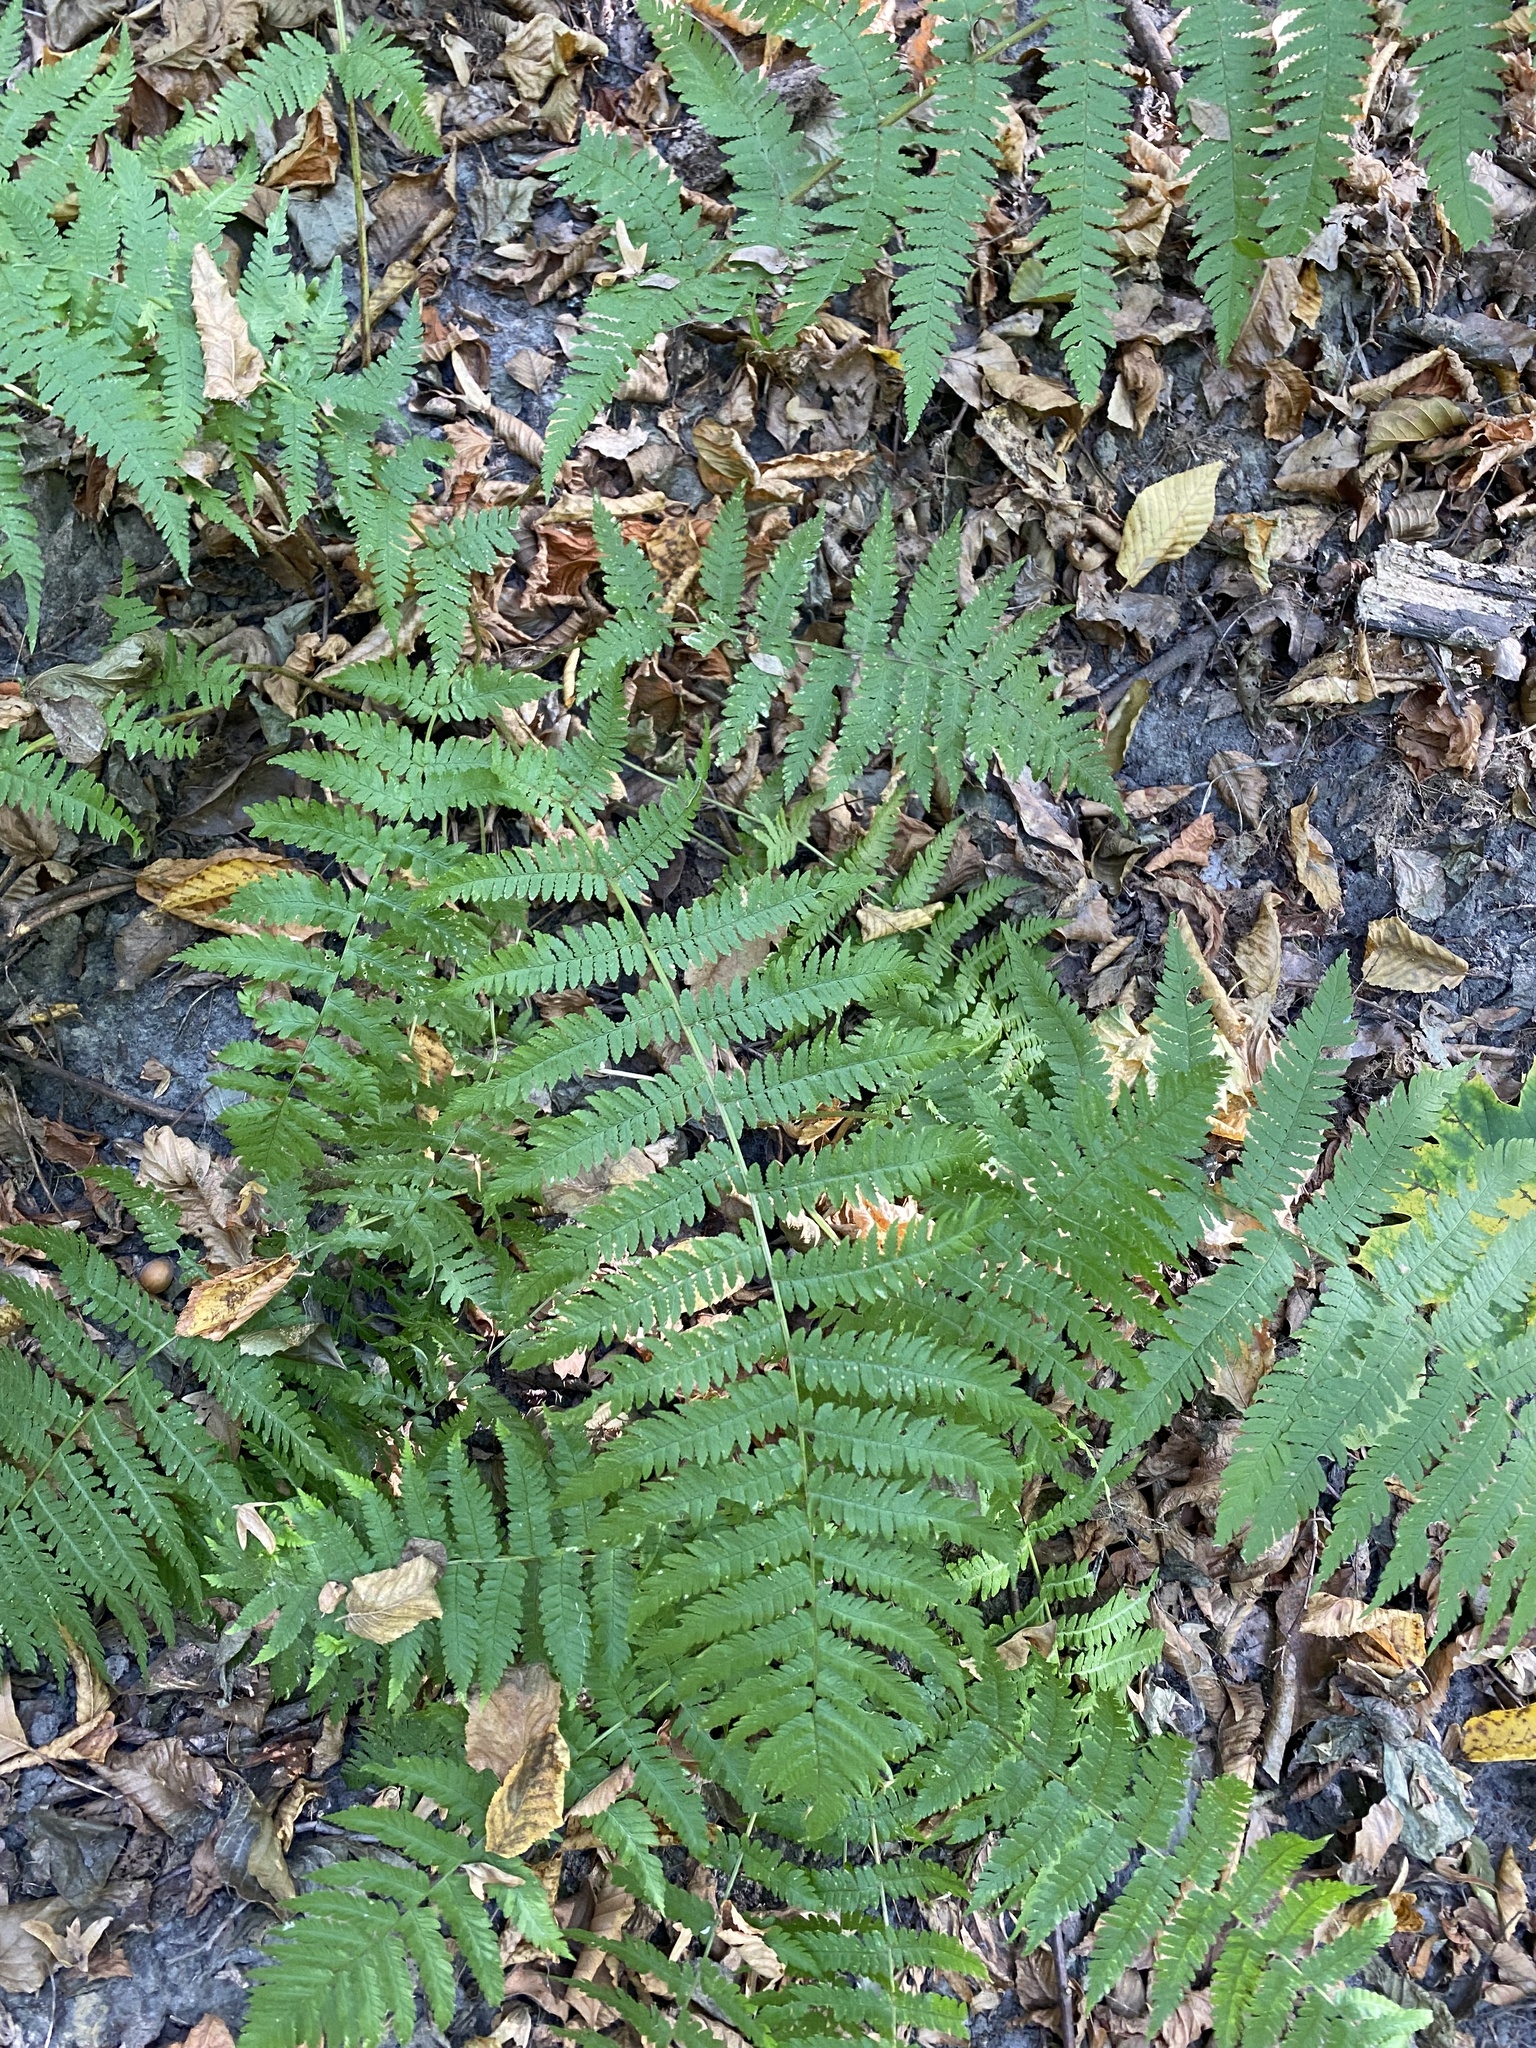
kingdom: Plantae
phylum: Tracheophyta
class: Polypodiopsida
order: Polypodiales
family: Dryopteridaceae
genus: Dryopteris
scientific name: Dryopteris filix-mas
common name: Male fern
